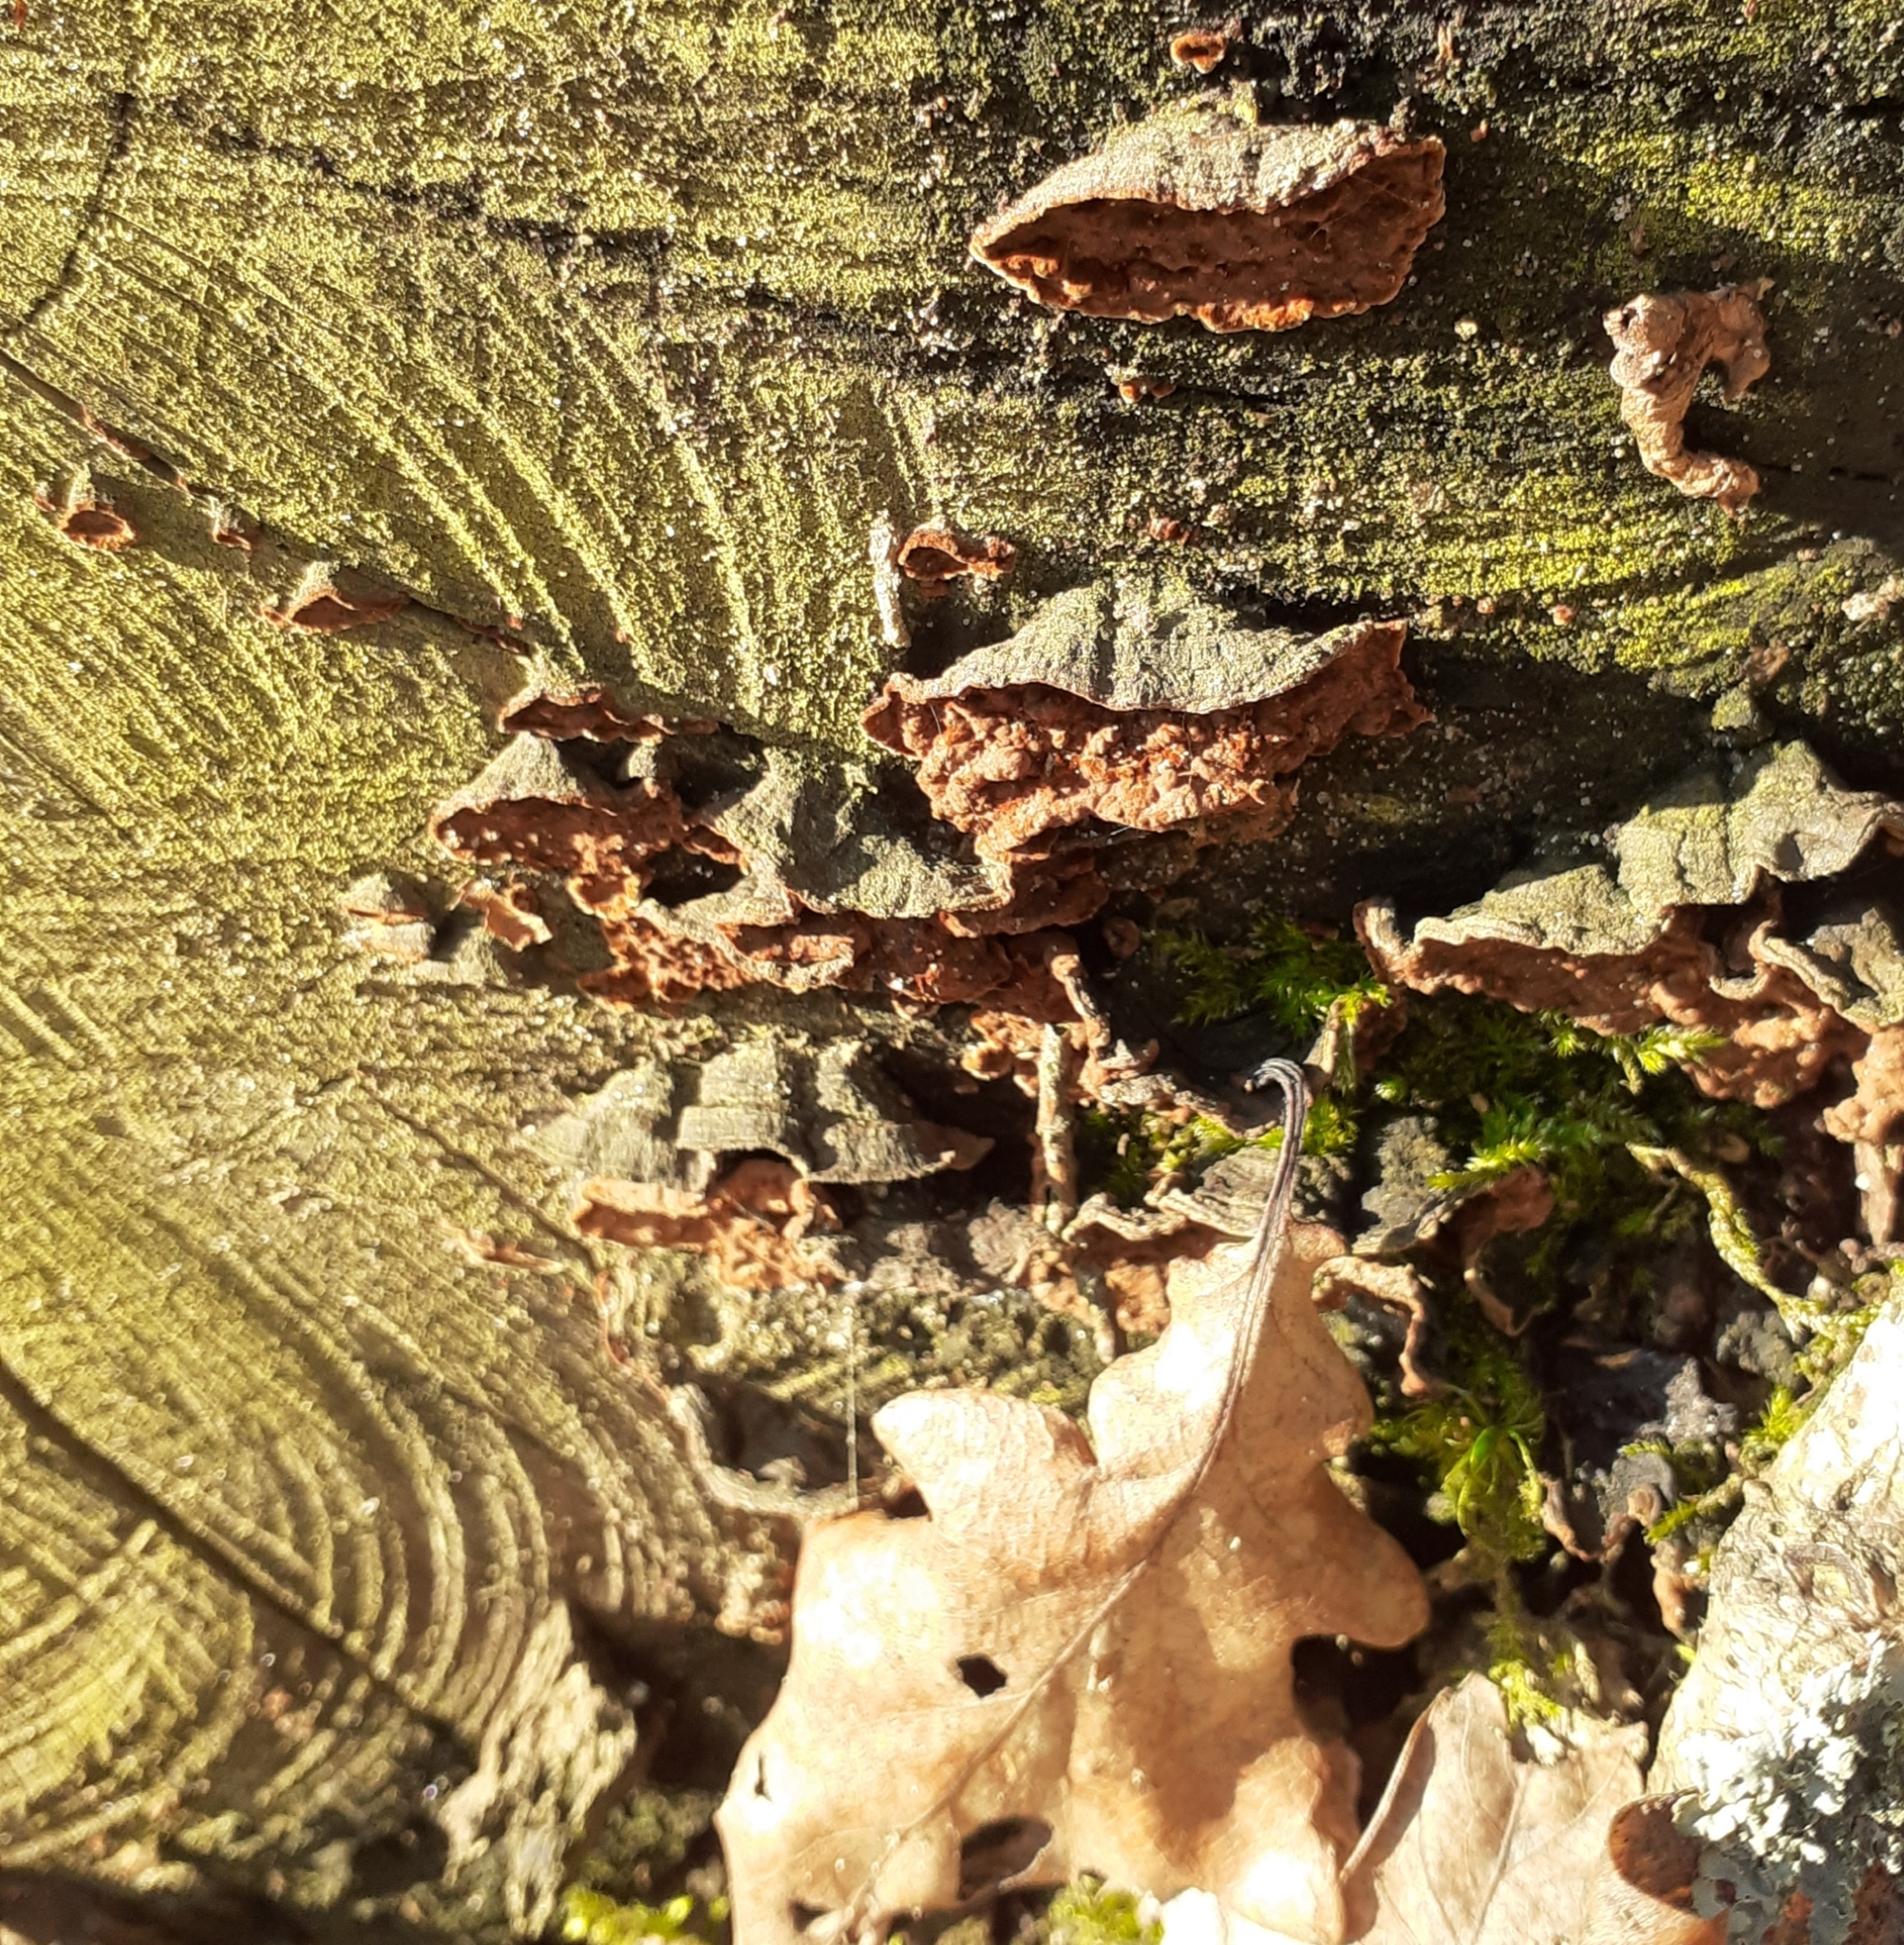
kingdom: Fungi
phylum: Basidiomycota
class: Agaricomycetes
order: Hymenochaetales
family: Hymenochaetaceae
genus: Hymenochaete
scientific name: Hymenochaete rubiginosa
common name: Oak curtain crust
